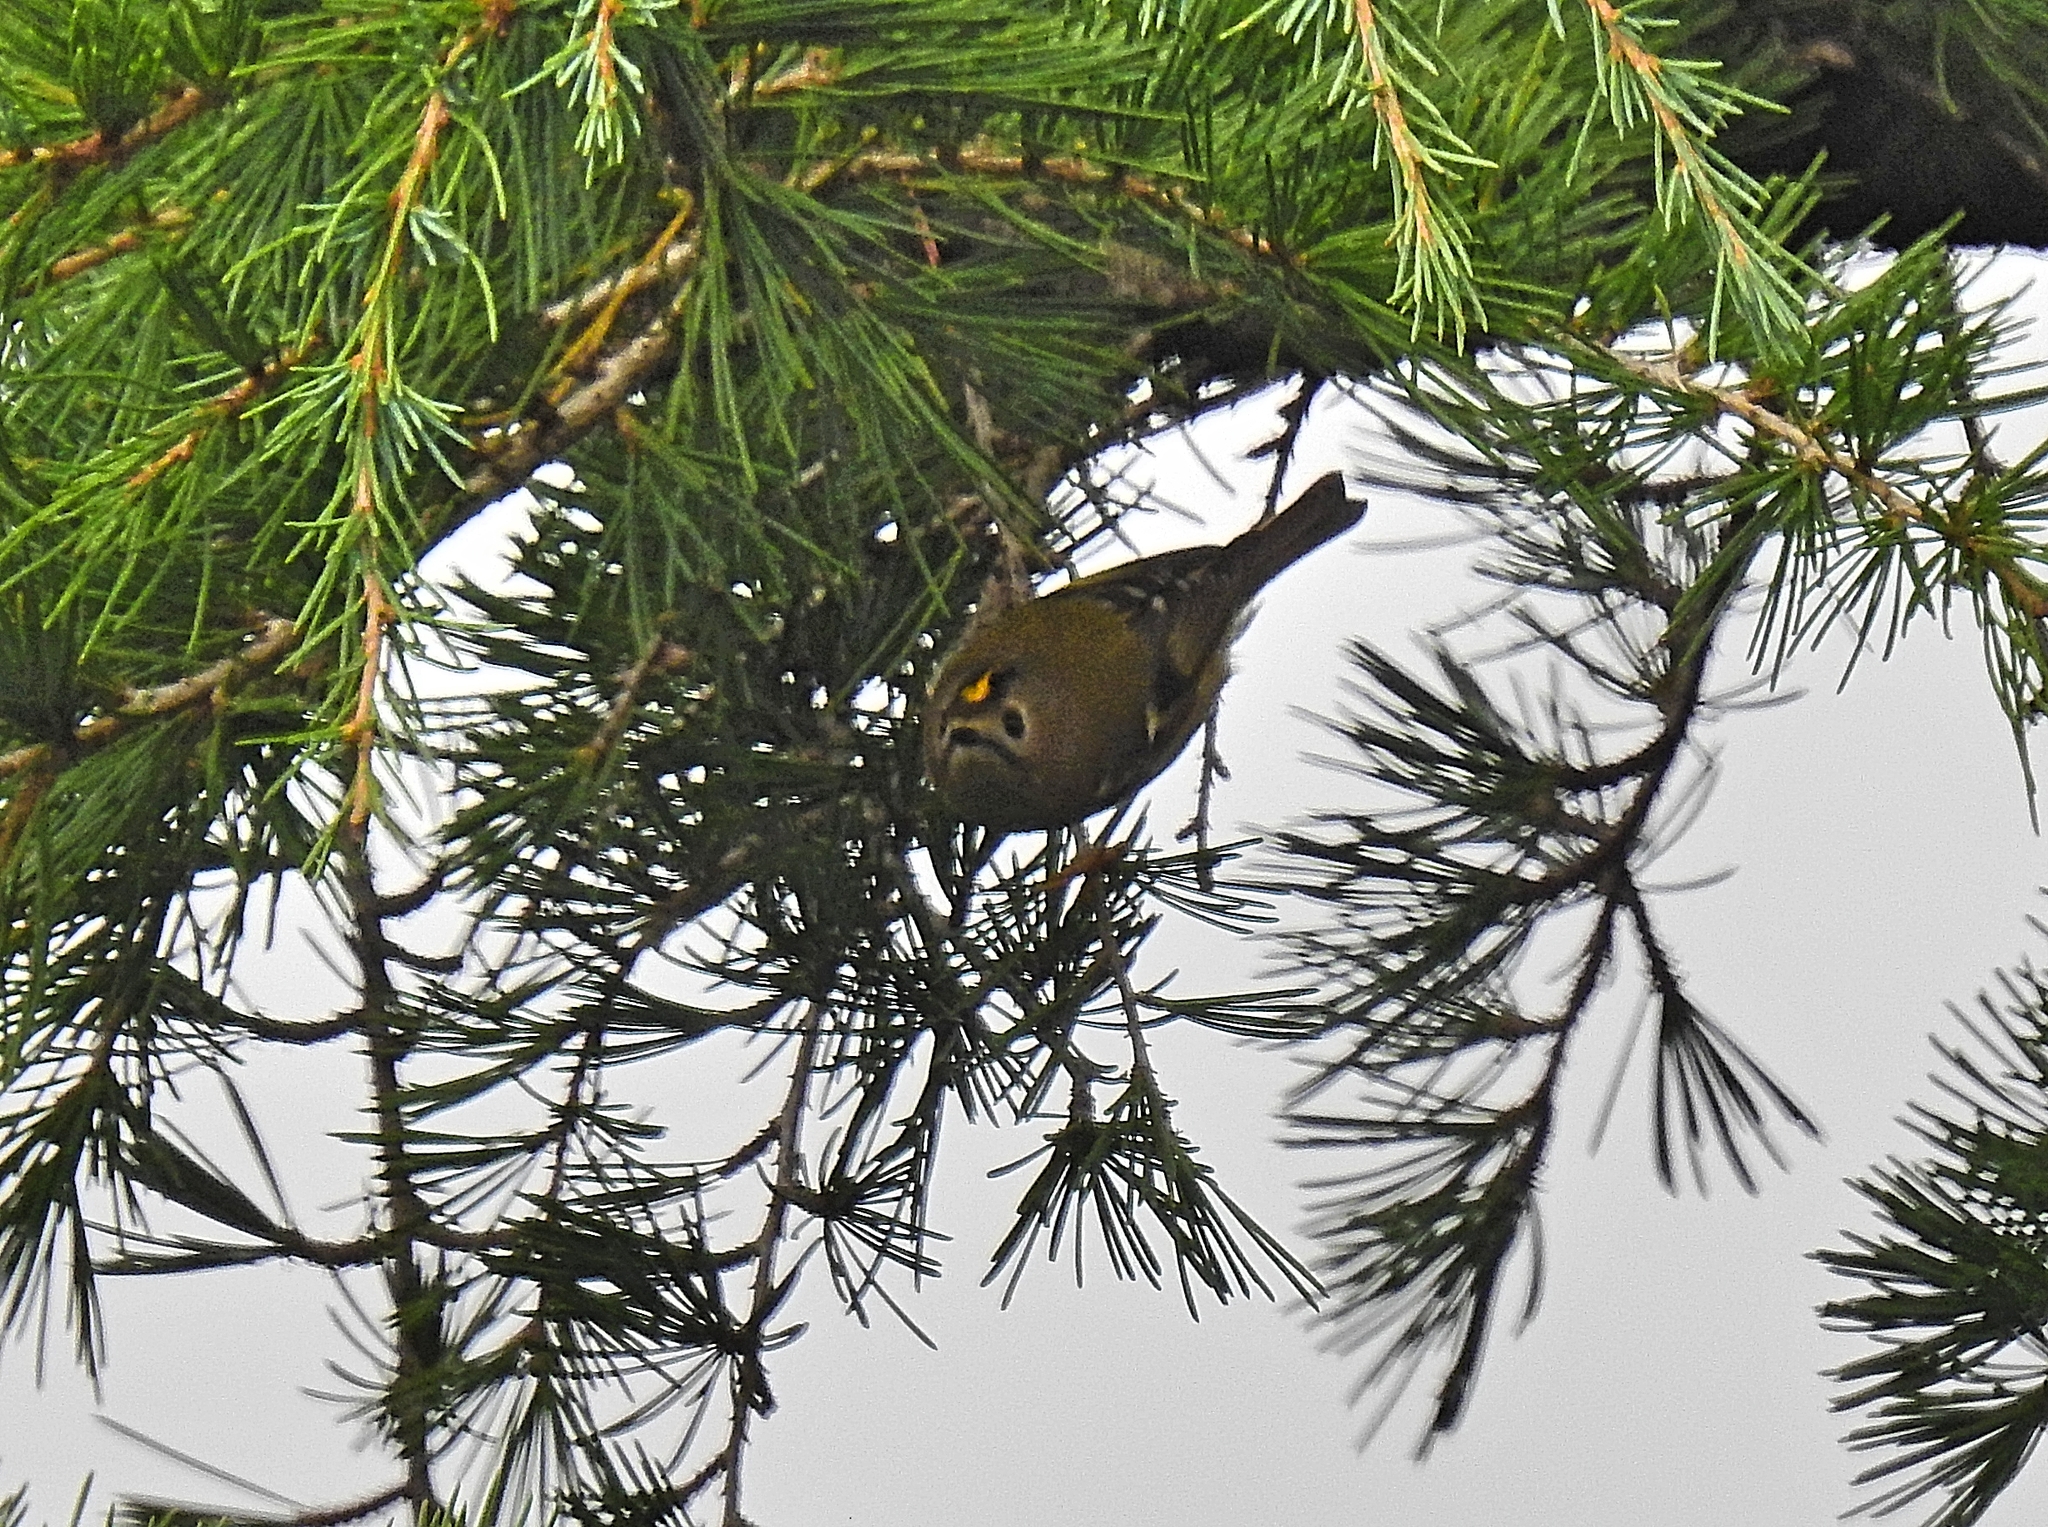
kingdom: Animalia
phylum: Chordata
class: Aves
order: Passeriformes
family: Regulidae
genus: Regulus
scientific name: Regulus regulus
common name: Goldcrest
